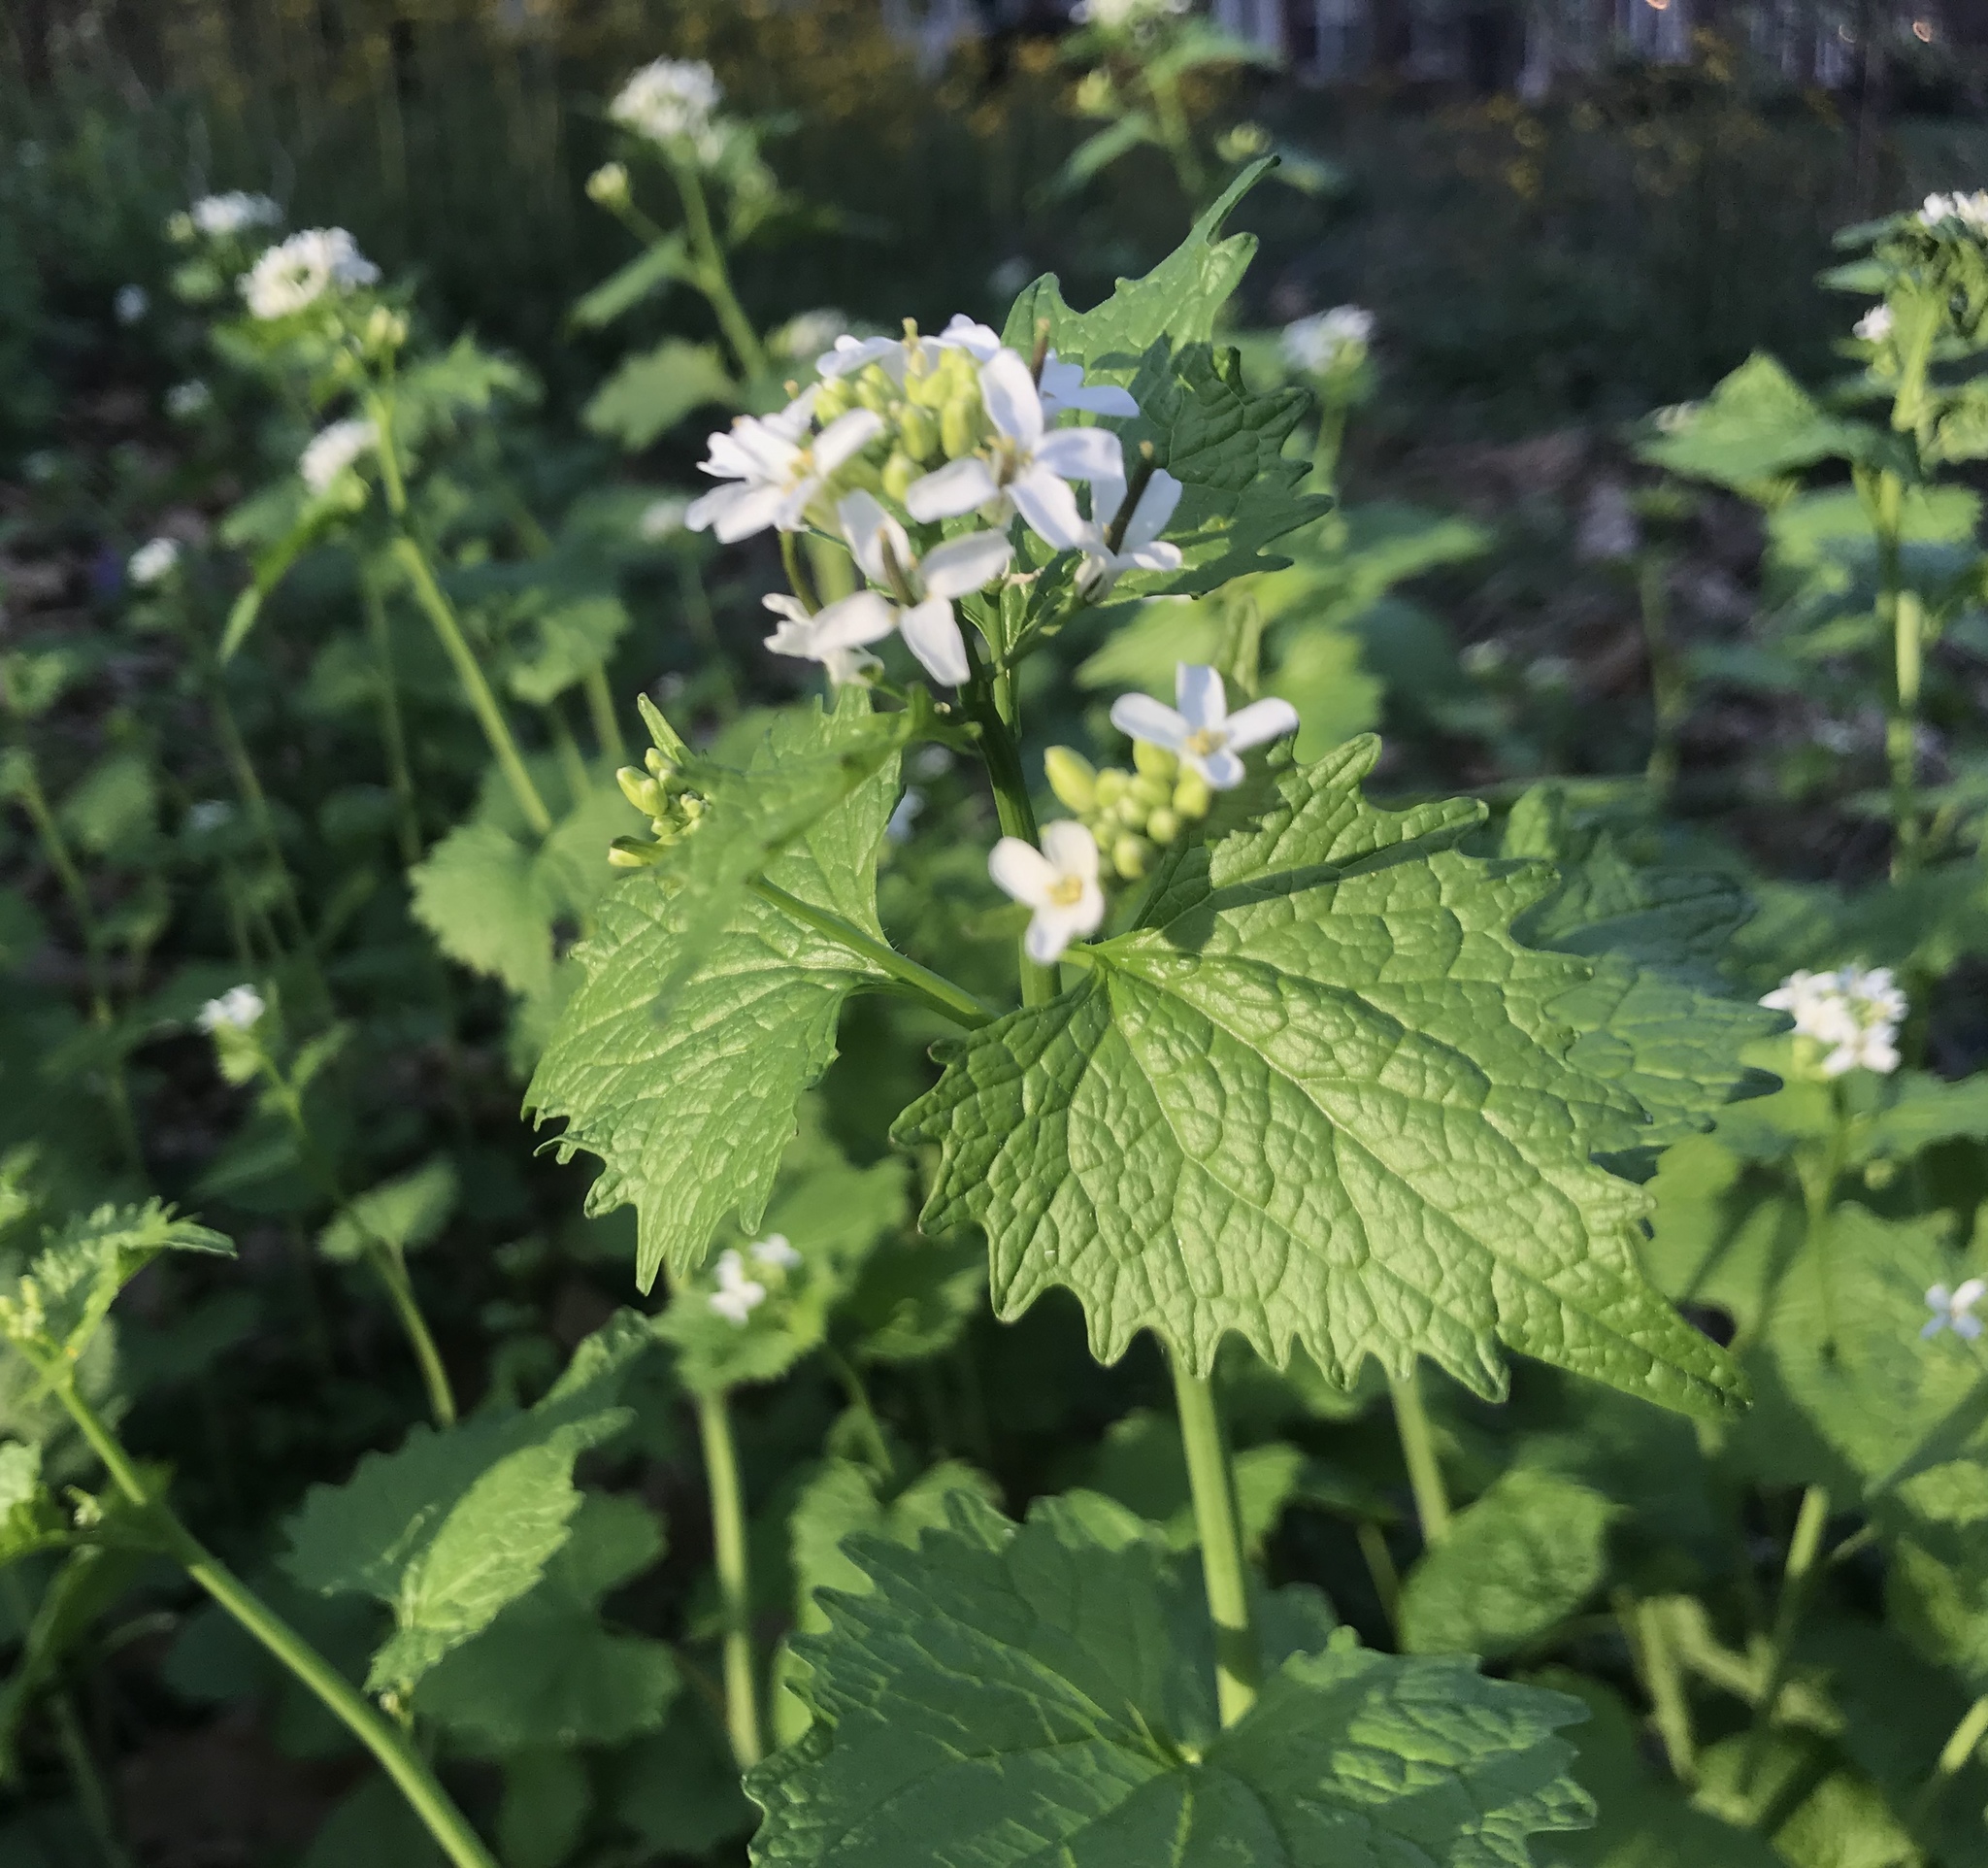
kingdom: Plantae
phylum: Tracheophyta
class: Magnoliopsida
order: Brassicales
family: Brassicaceae
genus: Alliaria
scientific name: Alliaria petiolata
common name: Garlic mustard
